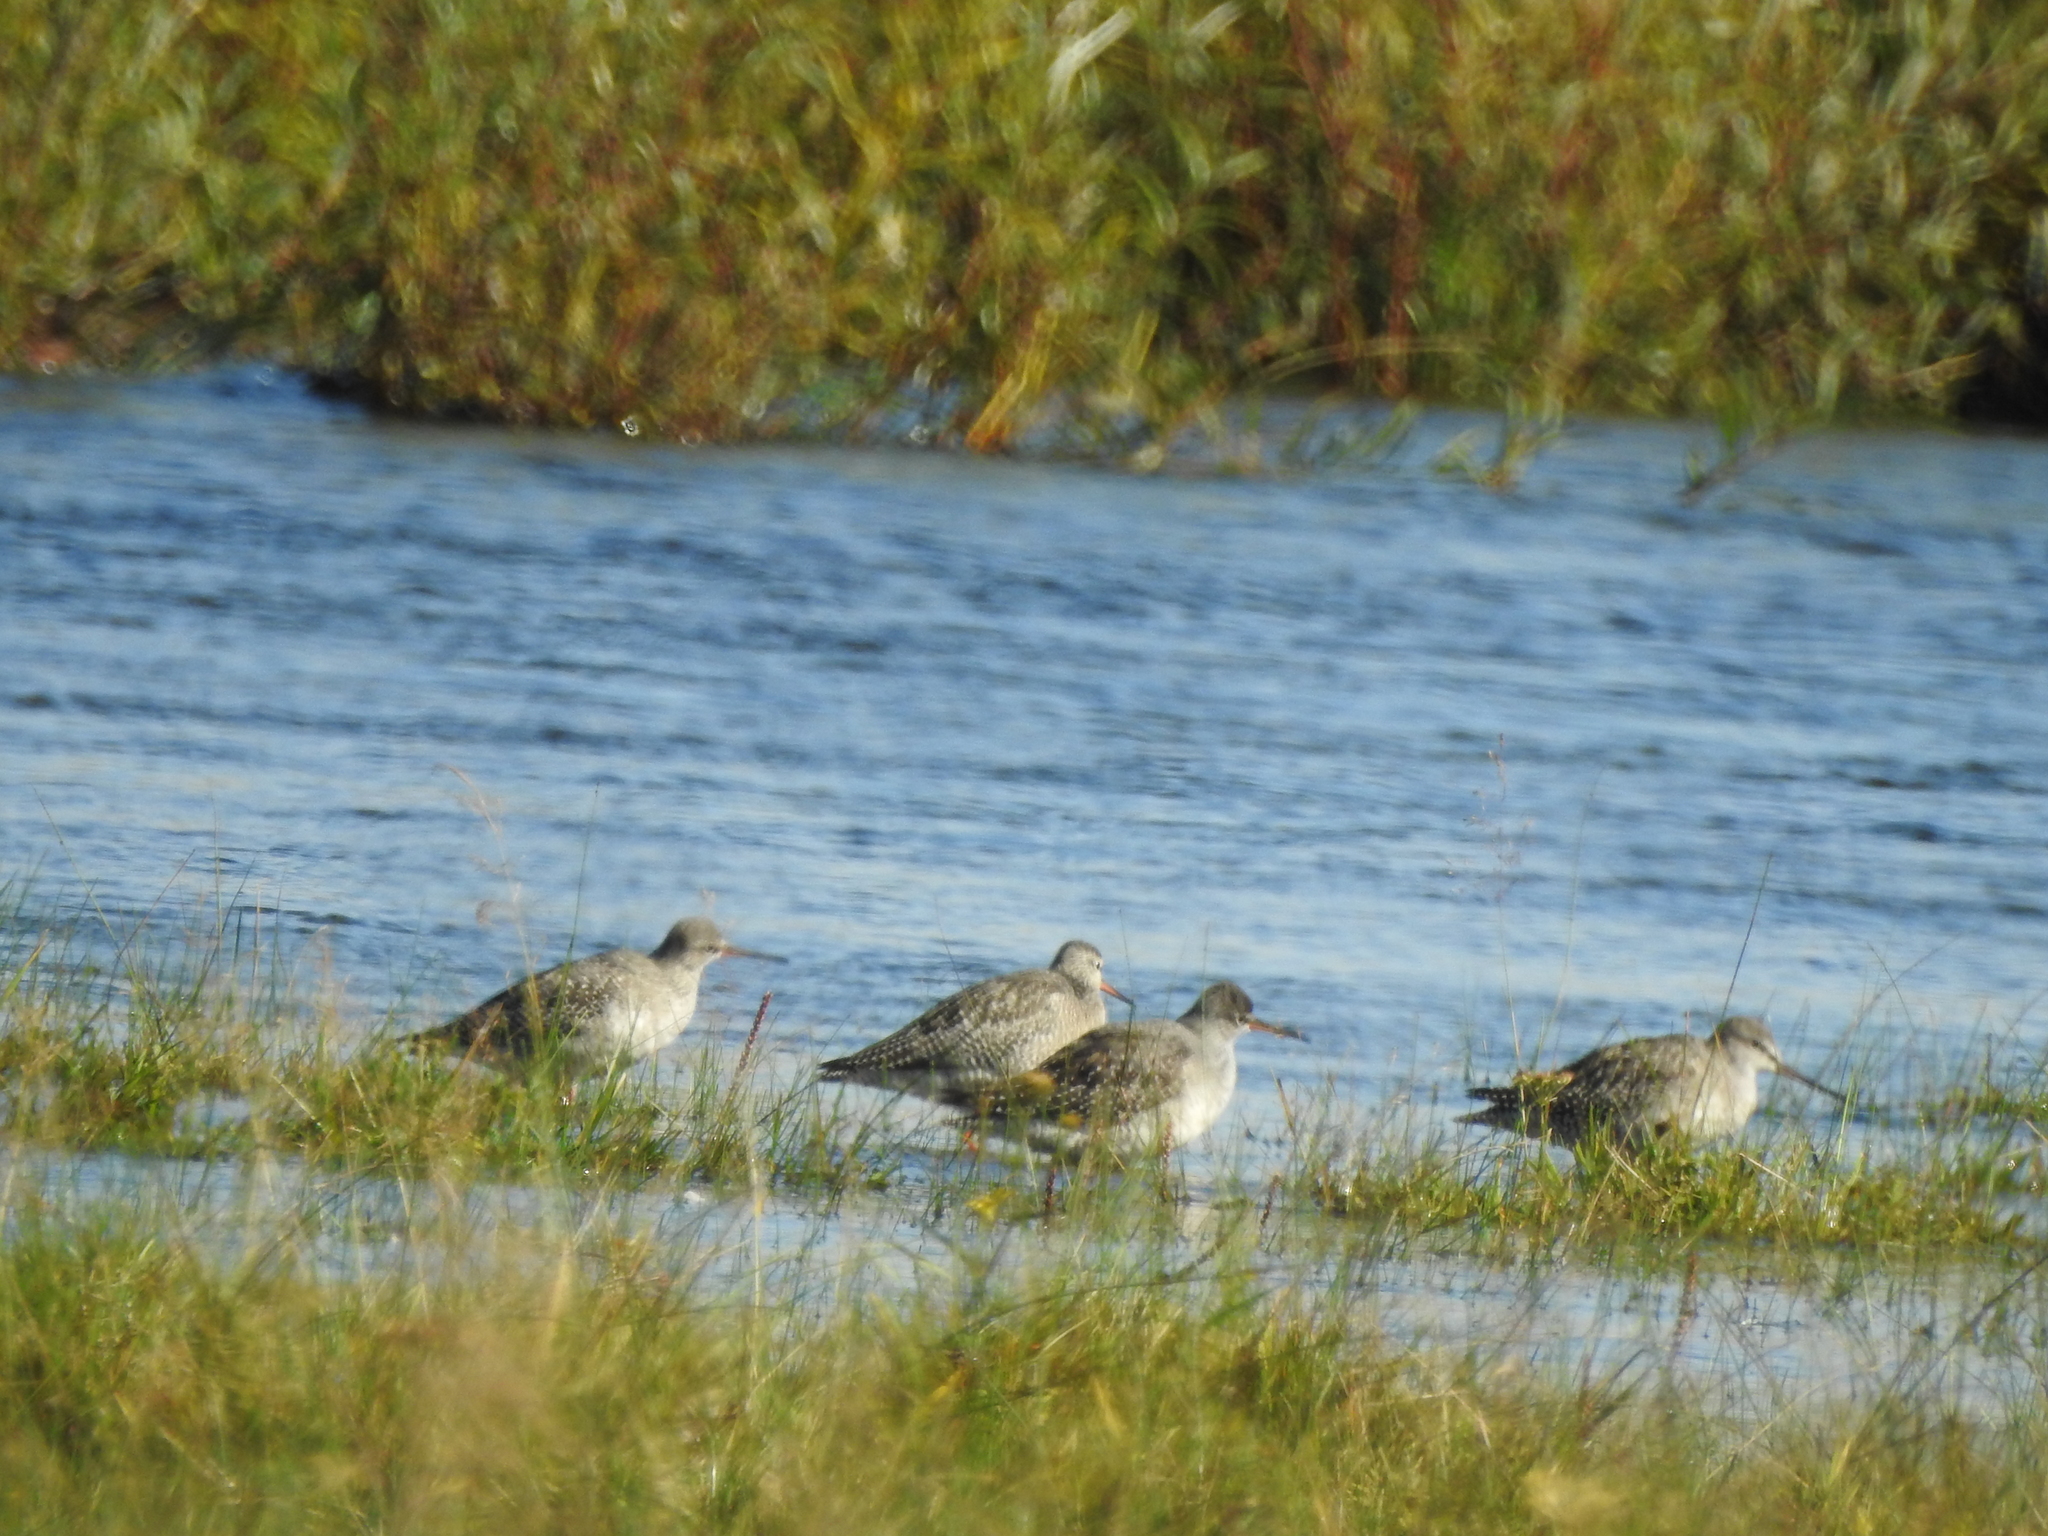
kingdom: Animalia
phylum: Chordata
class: Aves
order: Charadriiformes
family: Scolopacidae
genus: Tringa
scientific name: Tringa erythropus
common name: Spotted redshank
